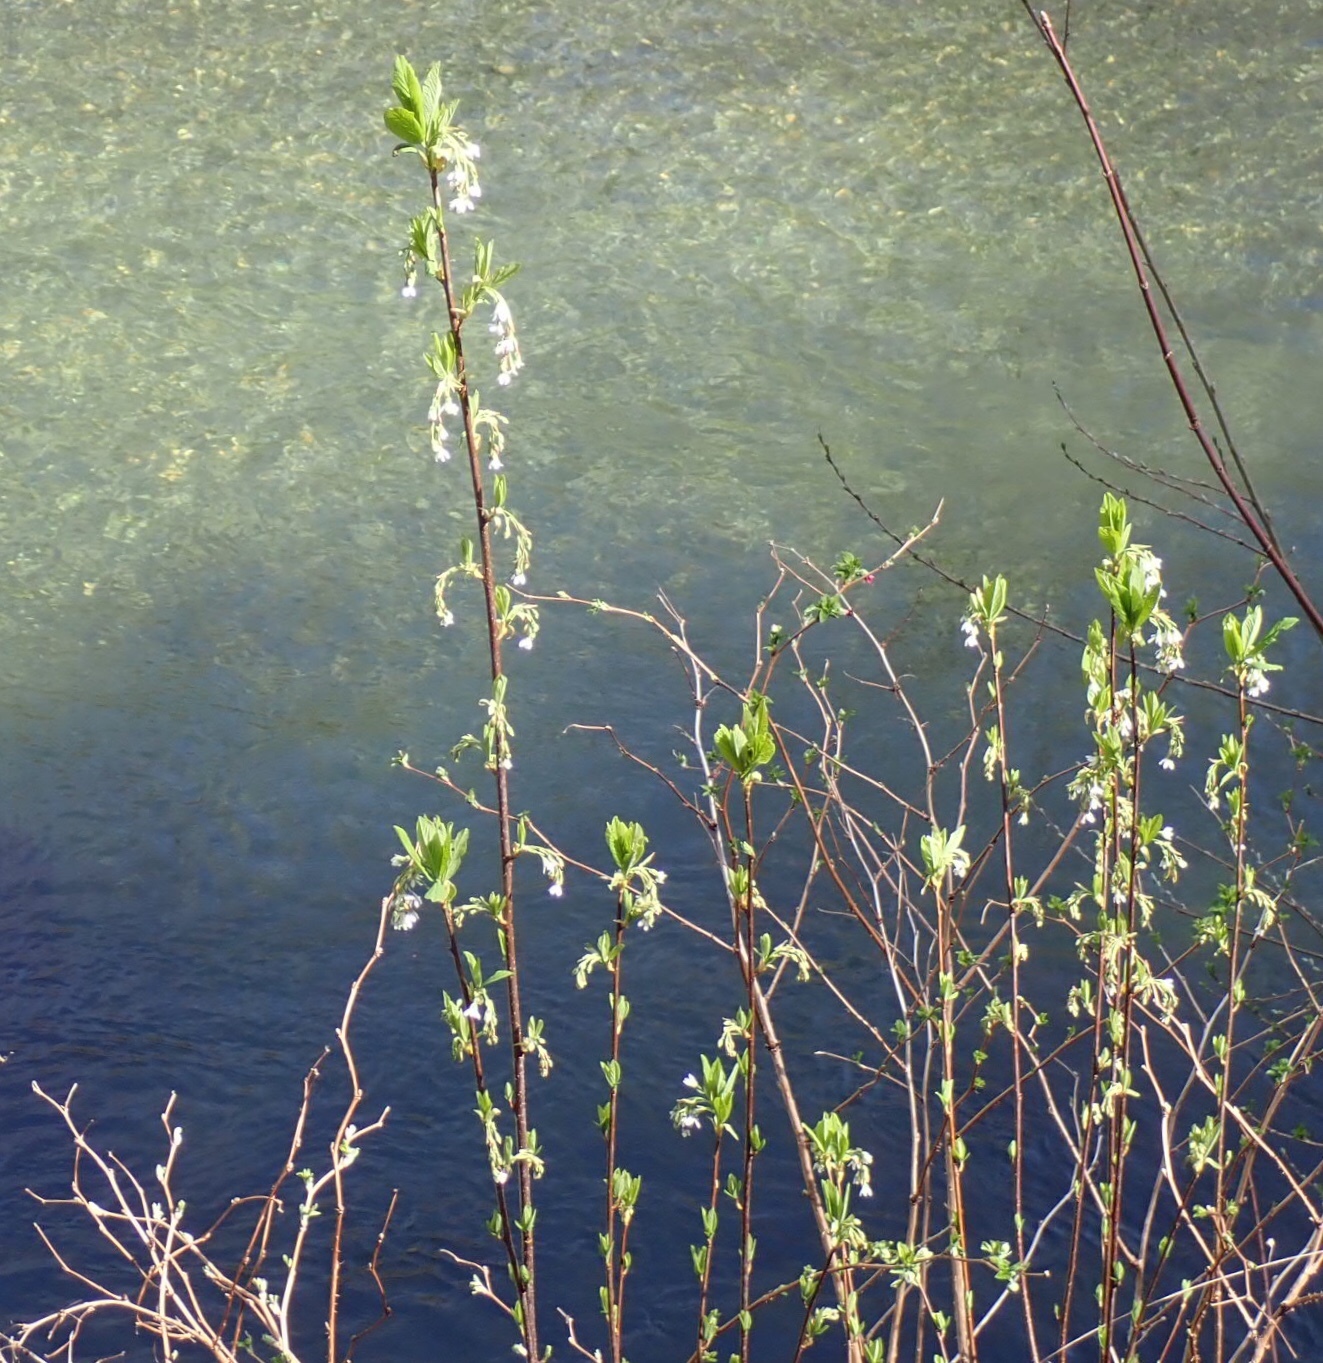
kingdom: Plantae
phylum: Tracheophyta
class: Magnoliopsida
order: Rosales
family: Rosaceae
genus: Oemleria
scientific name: Oemleria cerasiformis
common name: Osoberry
